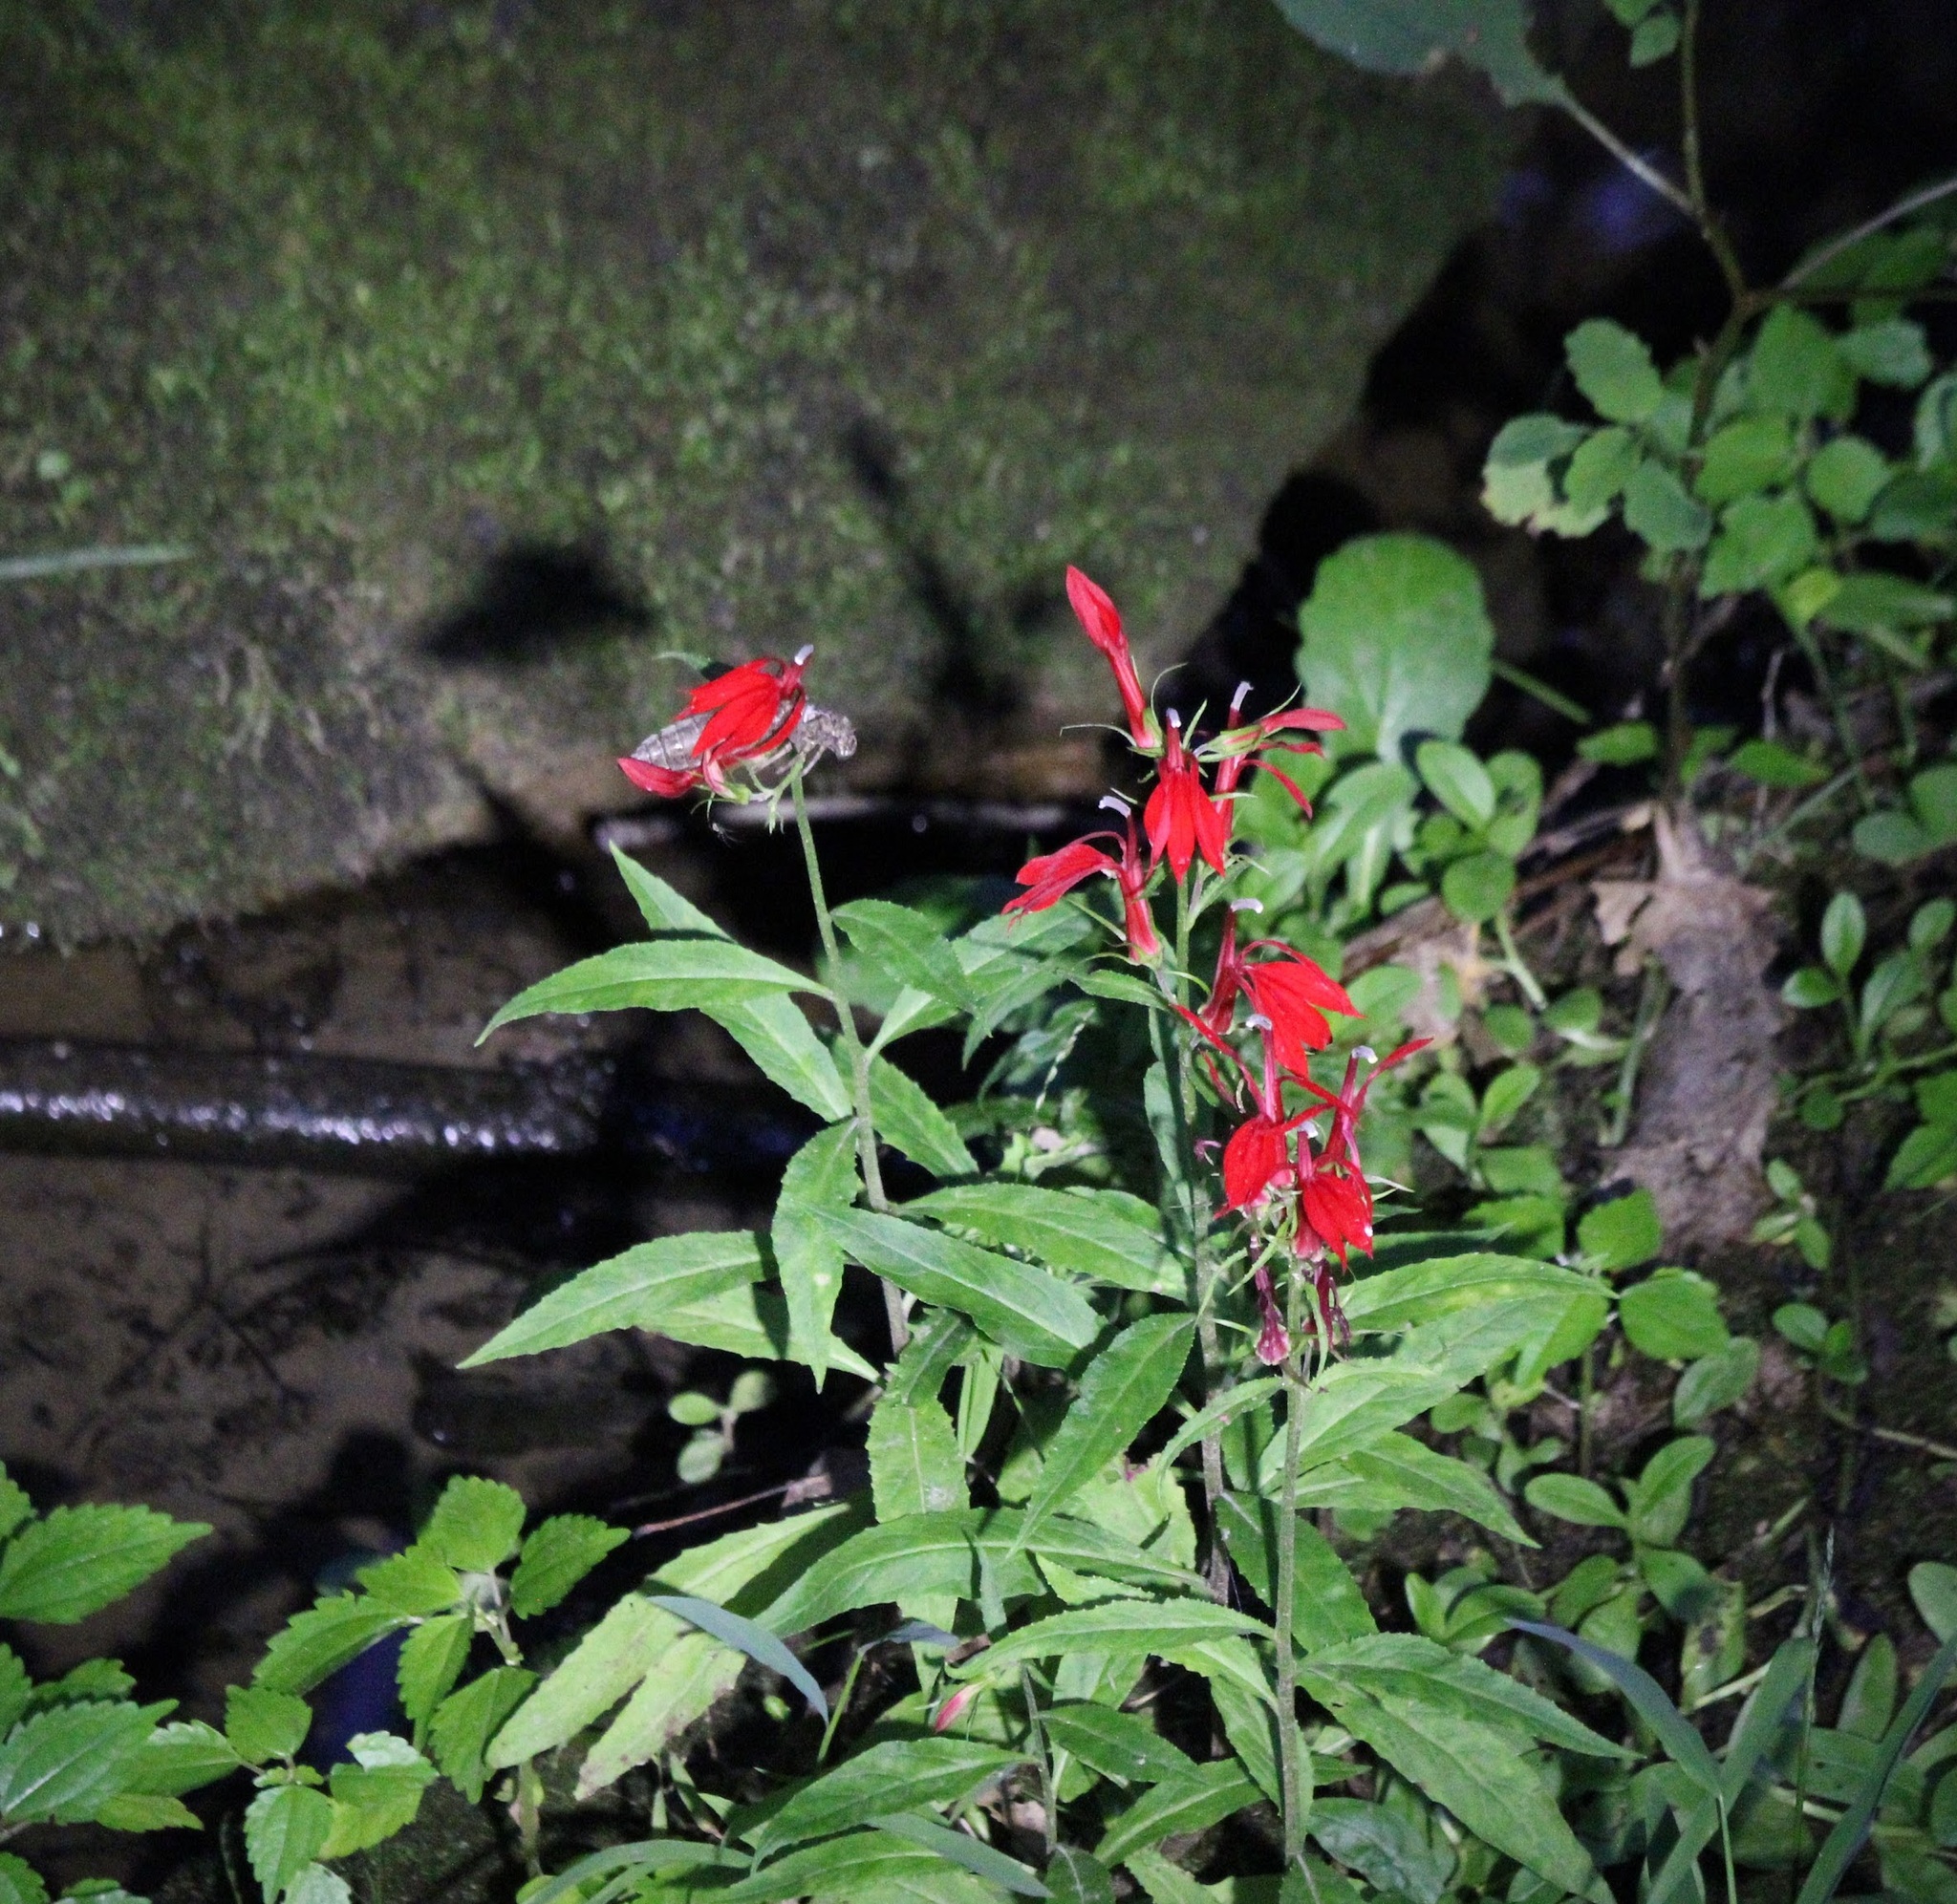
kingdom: Plantae
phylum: Tracheophyta
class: Magnoliopsida
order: Asterales
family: Campanulaceae
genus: Lobelia
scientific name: Lobelia cardinalis
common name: Cardinal flower
